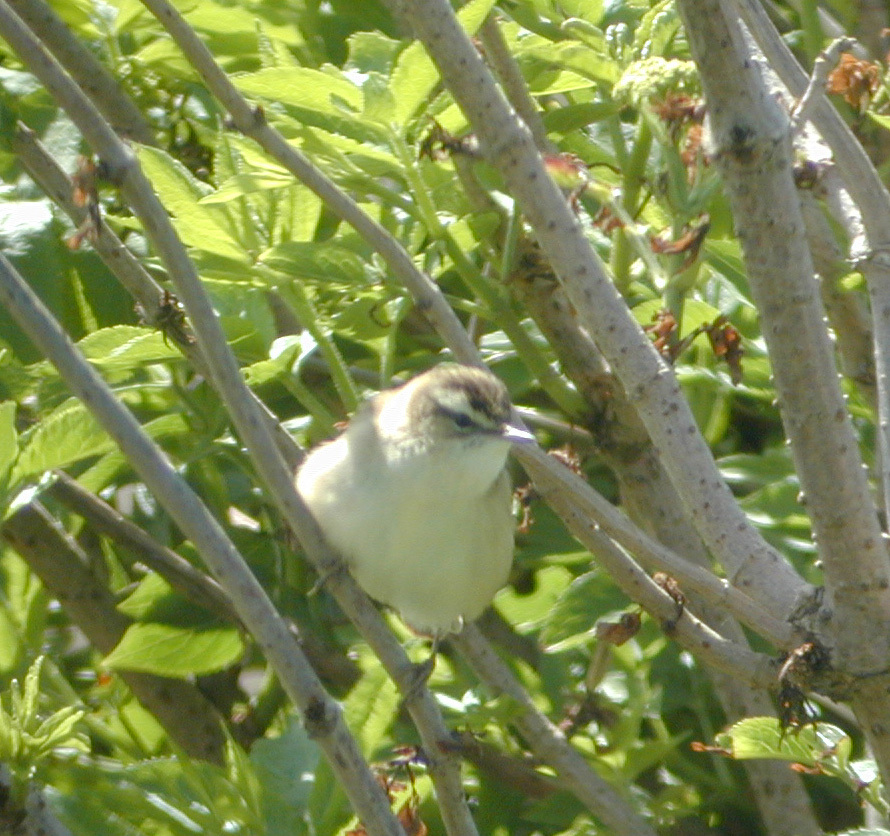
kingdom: Animalia
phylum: Chordata
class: Aves
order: Passeriformes
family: Acrocephalidae
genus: Acrocephalus
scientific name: Acrocephalus schoenobaenus
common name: Sedge warbler
